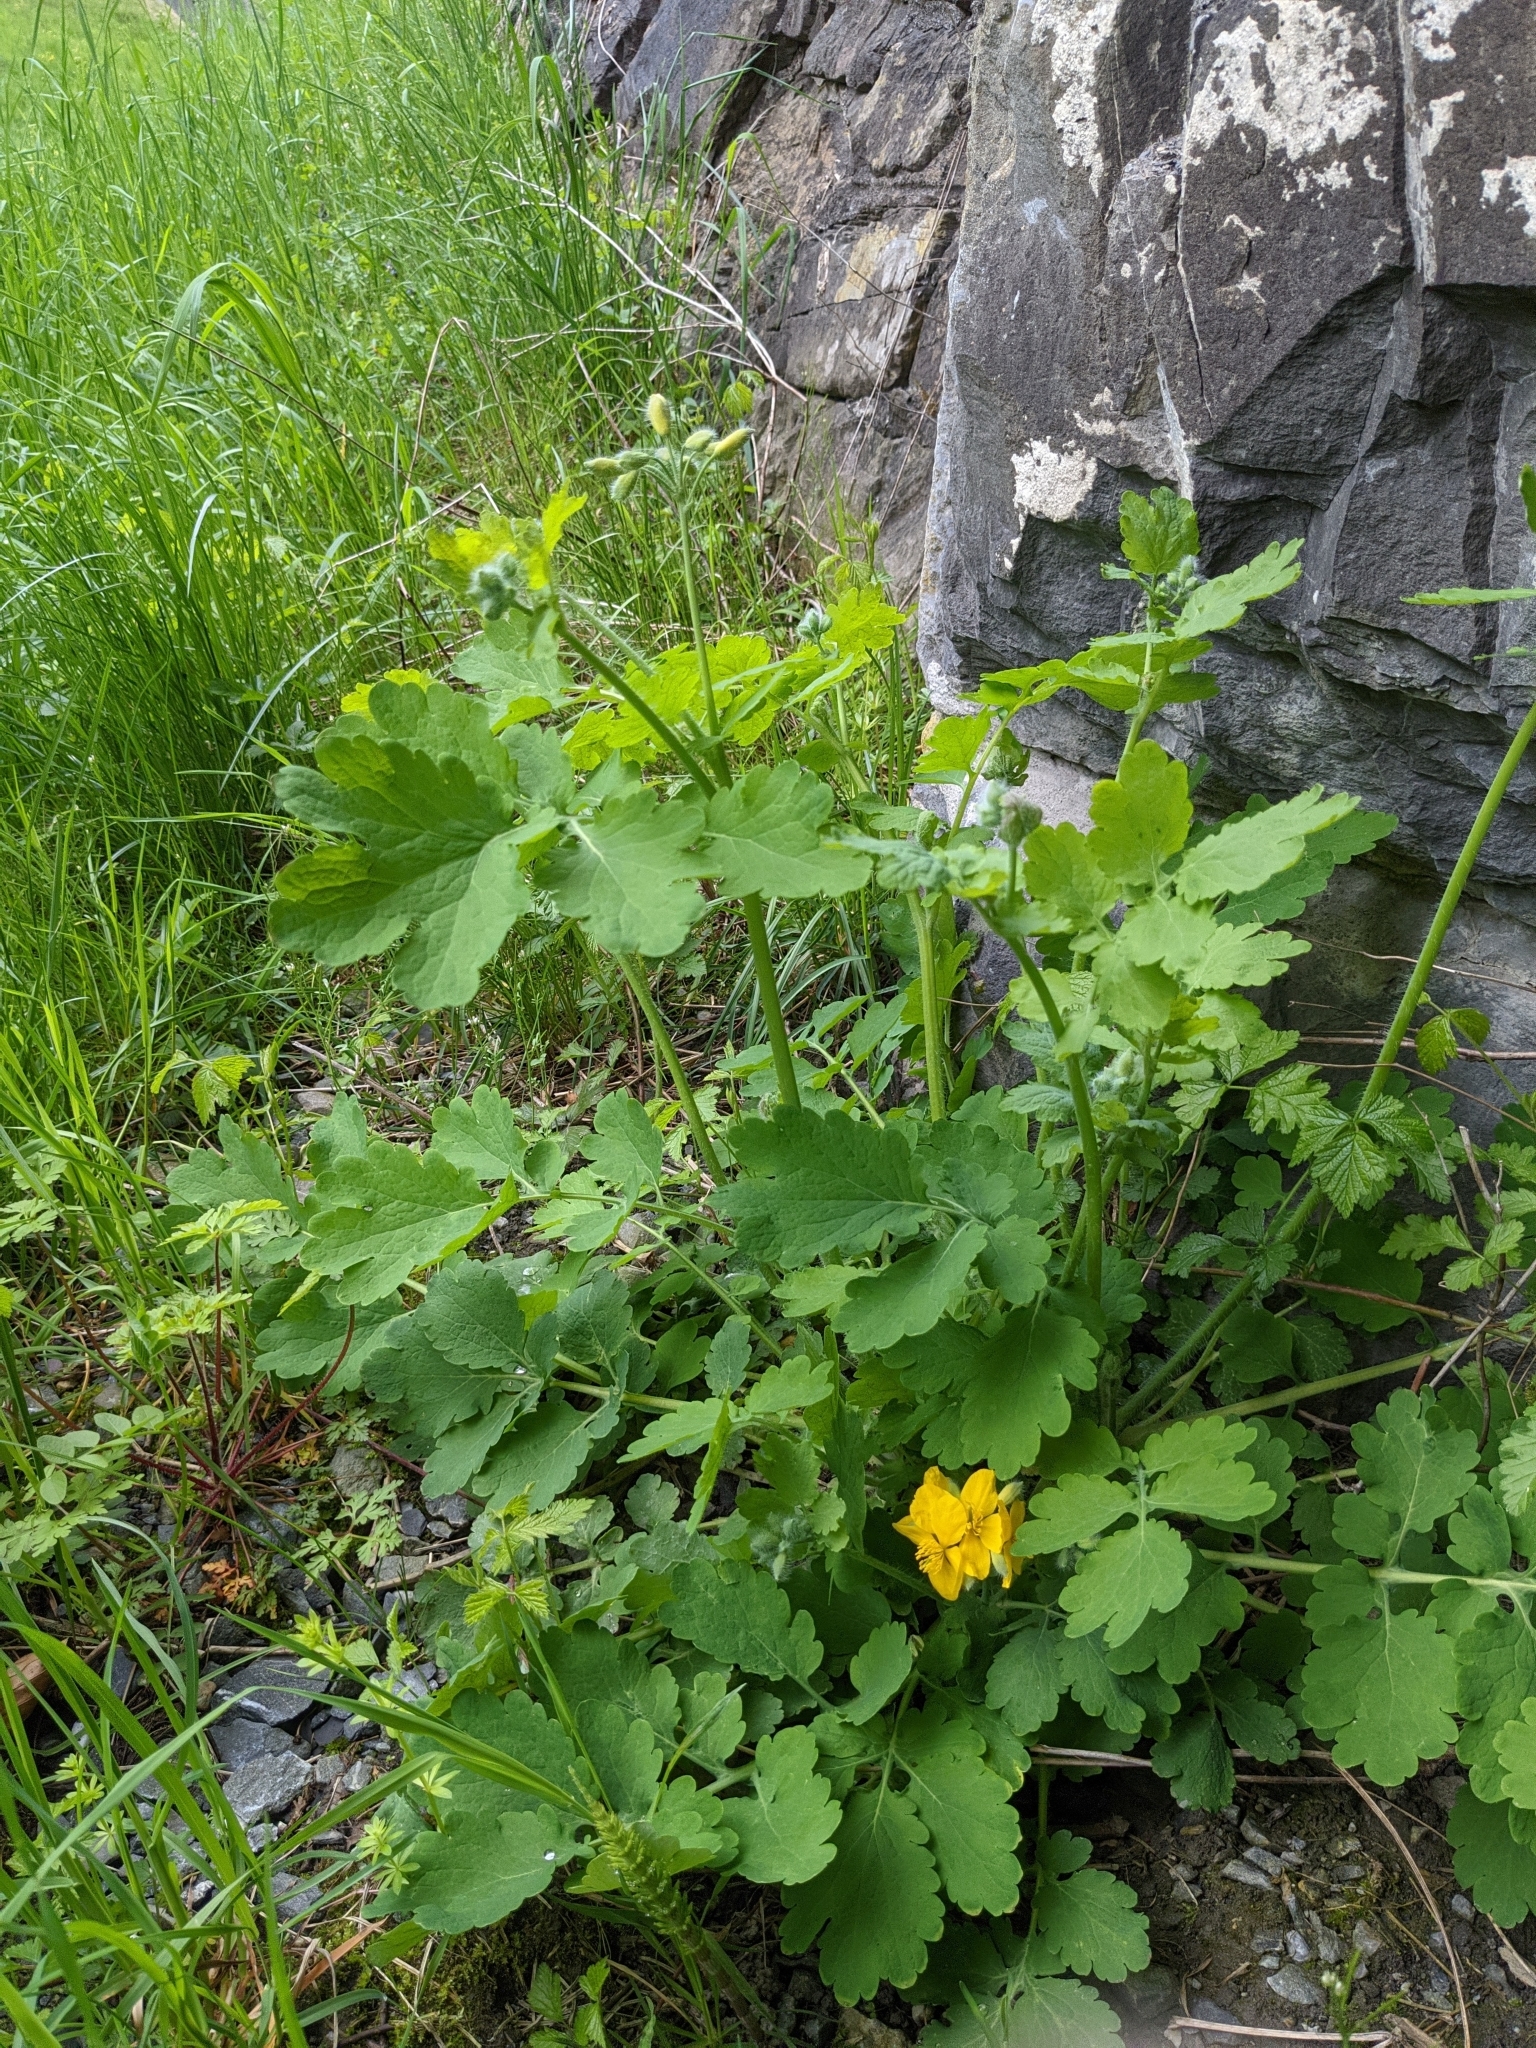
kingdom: Plantae
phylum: Tracheophyta
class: Magnoliopsida
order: Ranunculales
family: Papaveraceae
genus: Chelidonium
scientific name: Chelidonium majus
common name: Greater celandine
